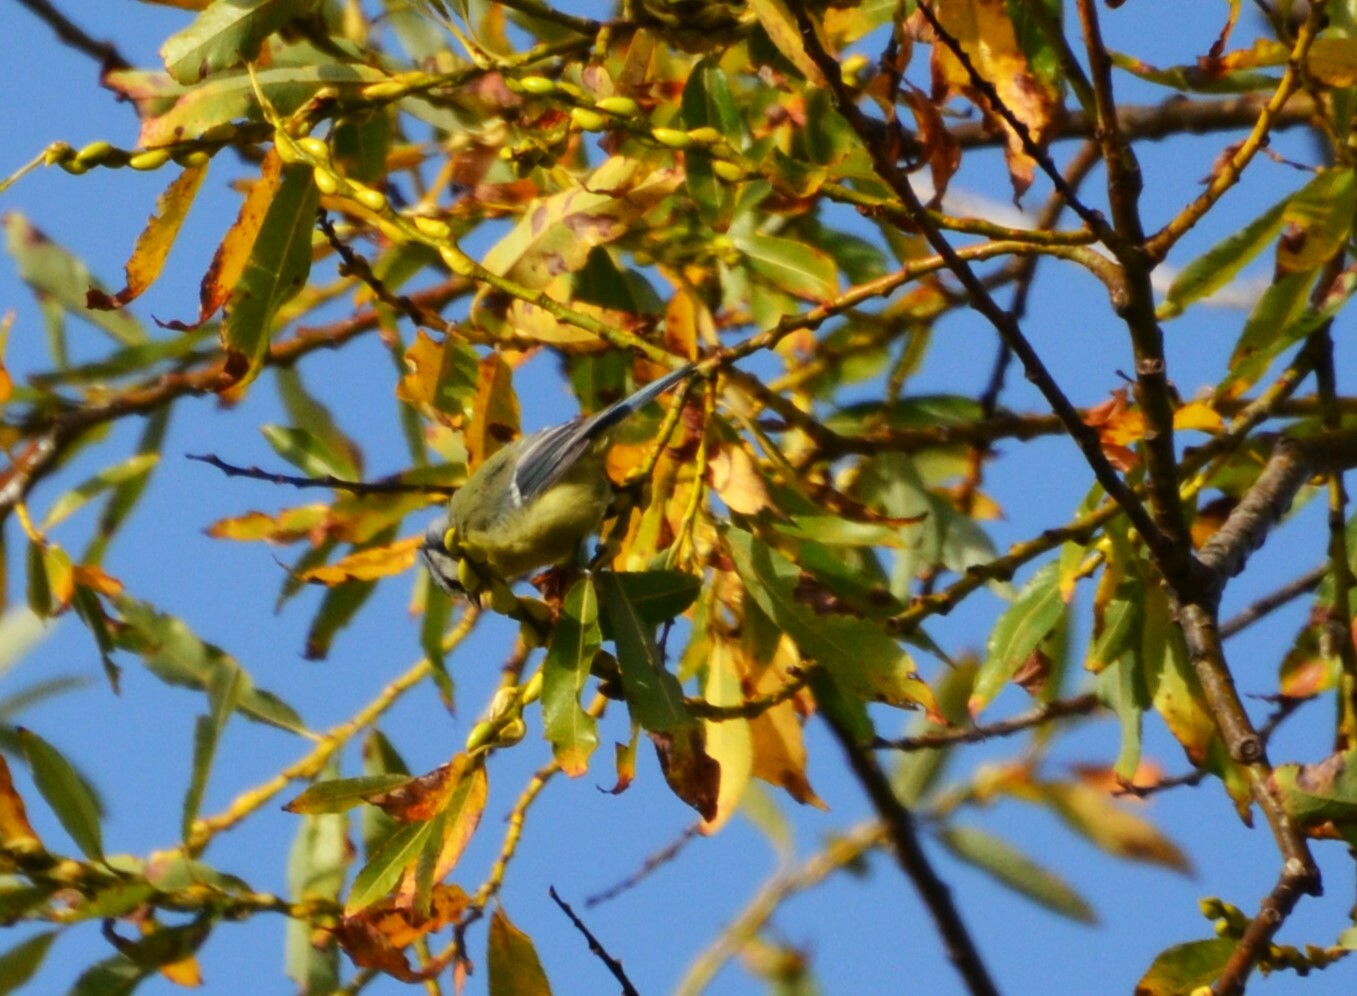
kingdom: Animalia
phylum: Chordata
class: Aves
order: Passeriformes
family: Paridae
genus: Cyanistes
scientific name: Cyanistes caeruleus
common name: Eurasian blue tit
